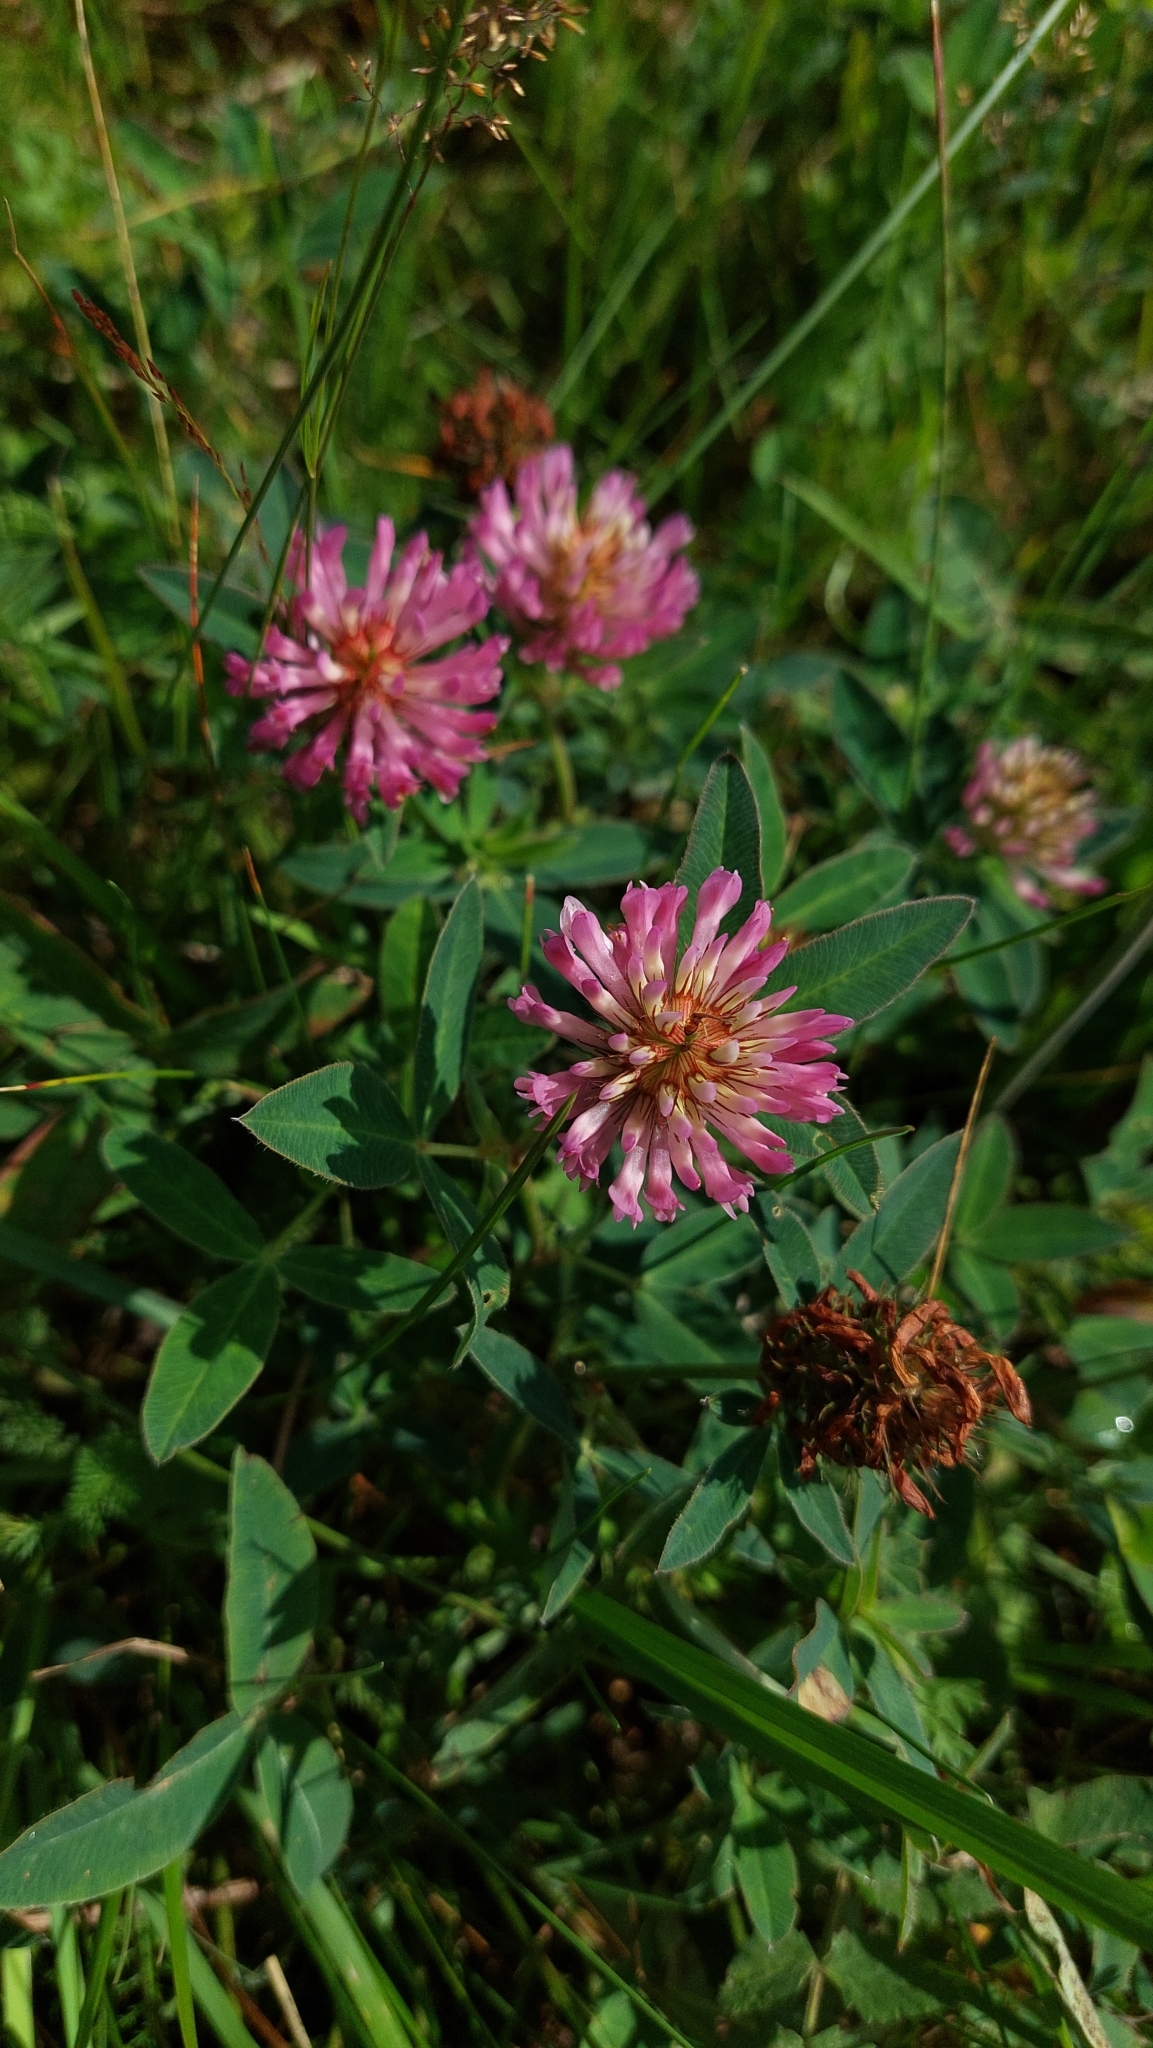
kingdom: Plantae
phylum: Tracheophyta
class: Magnoliopsida
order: Fabales
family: Fabaceae
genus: Trifolium
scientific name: Trifolium medium
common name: Zigzag clover
